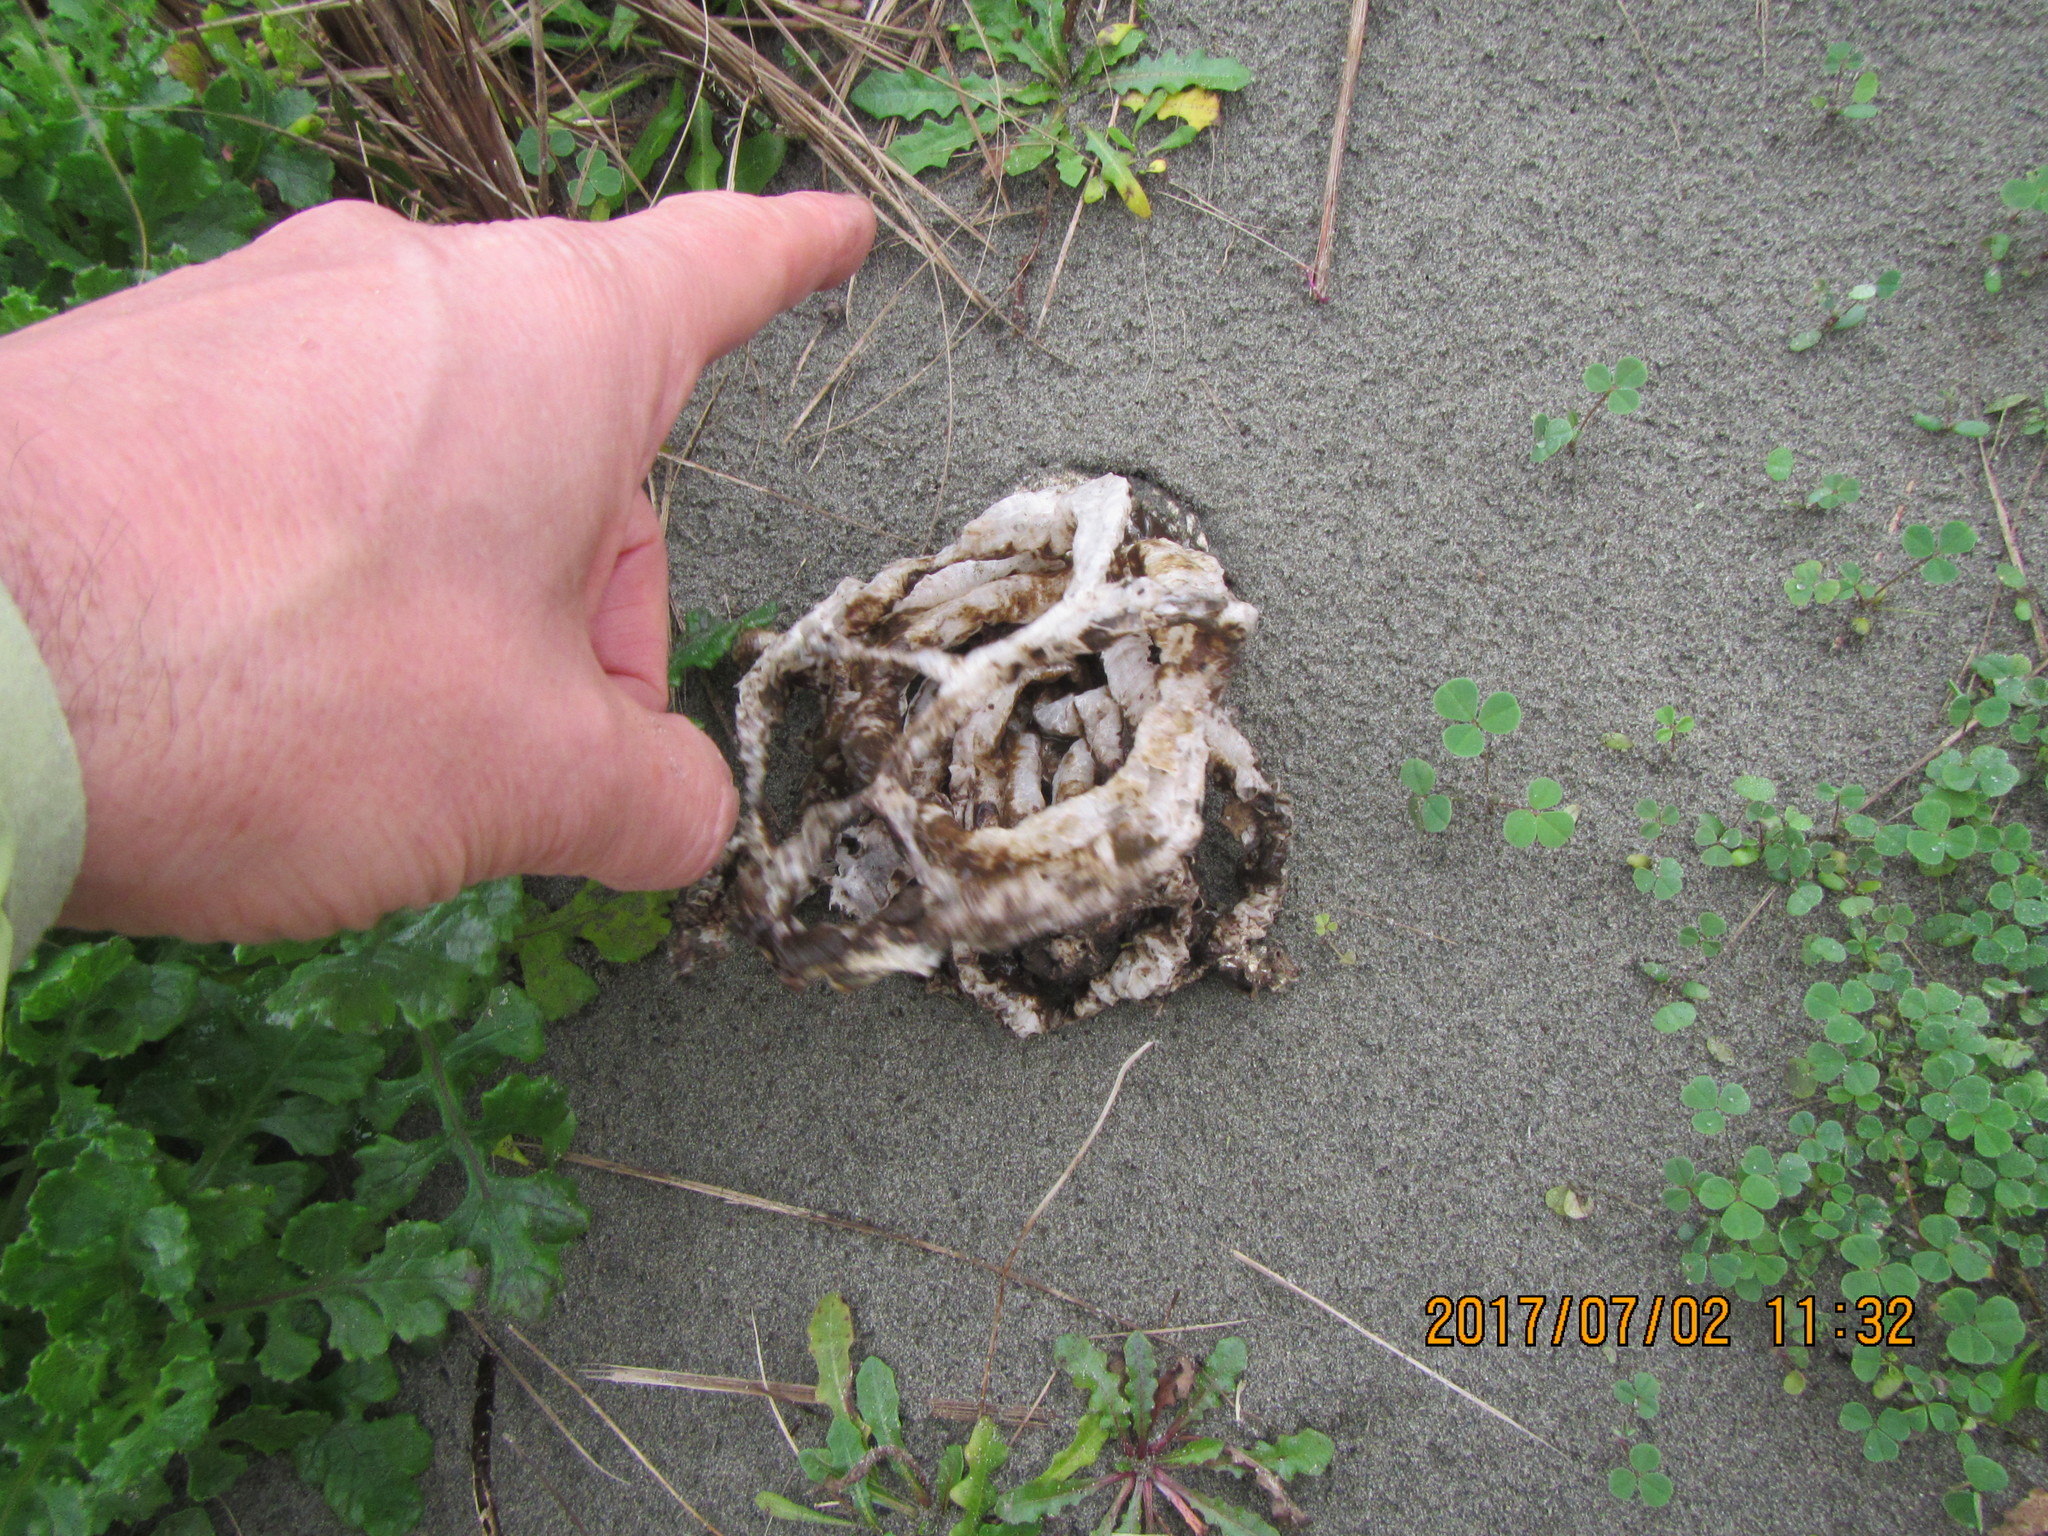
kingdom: Fungi
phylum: Basidiomycota
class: Agaricomycetes
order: Phallales
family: Phallaceae
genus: Ileodictyon
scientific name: Ileodictyon cibarium
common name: Basket fungus
